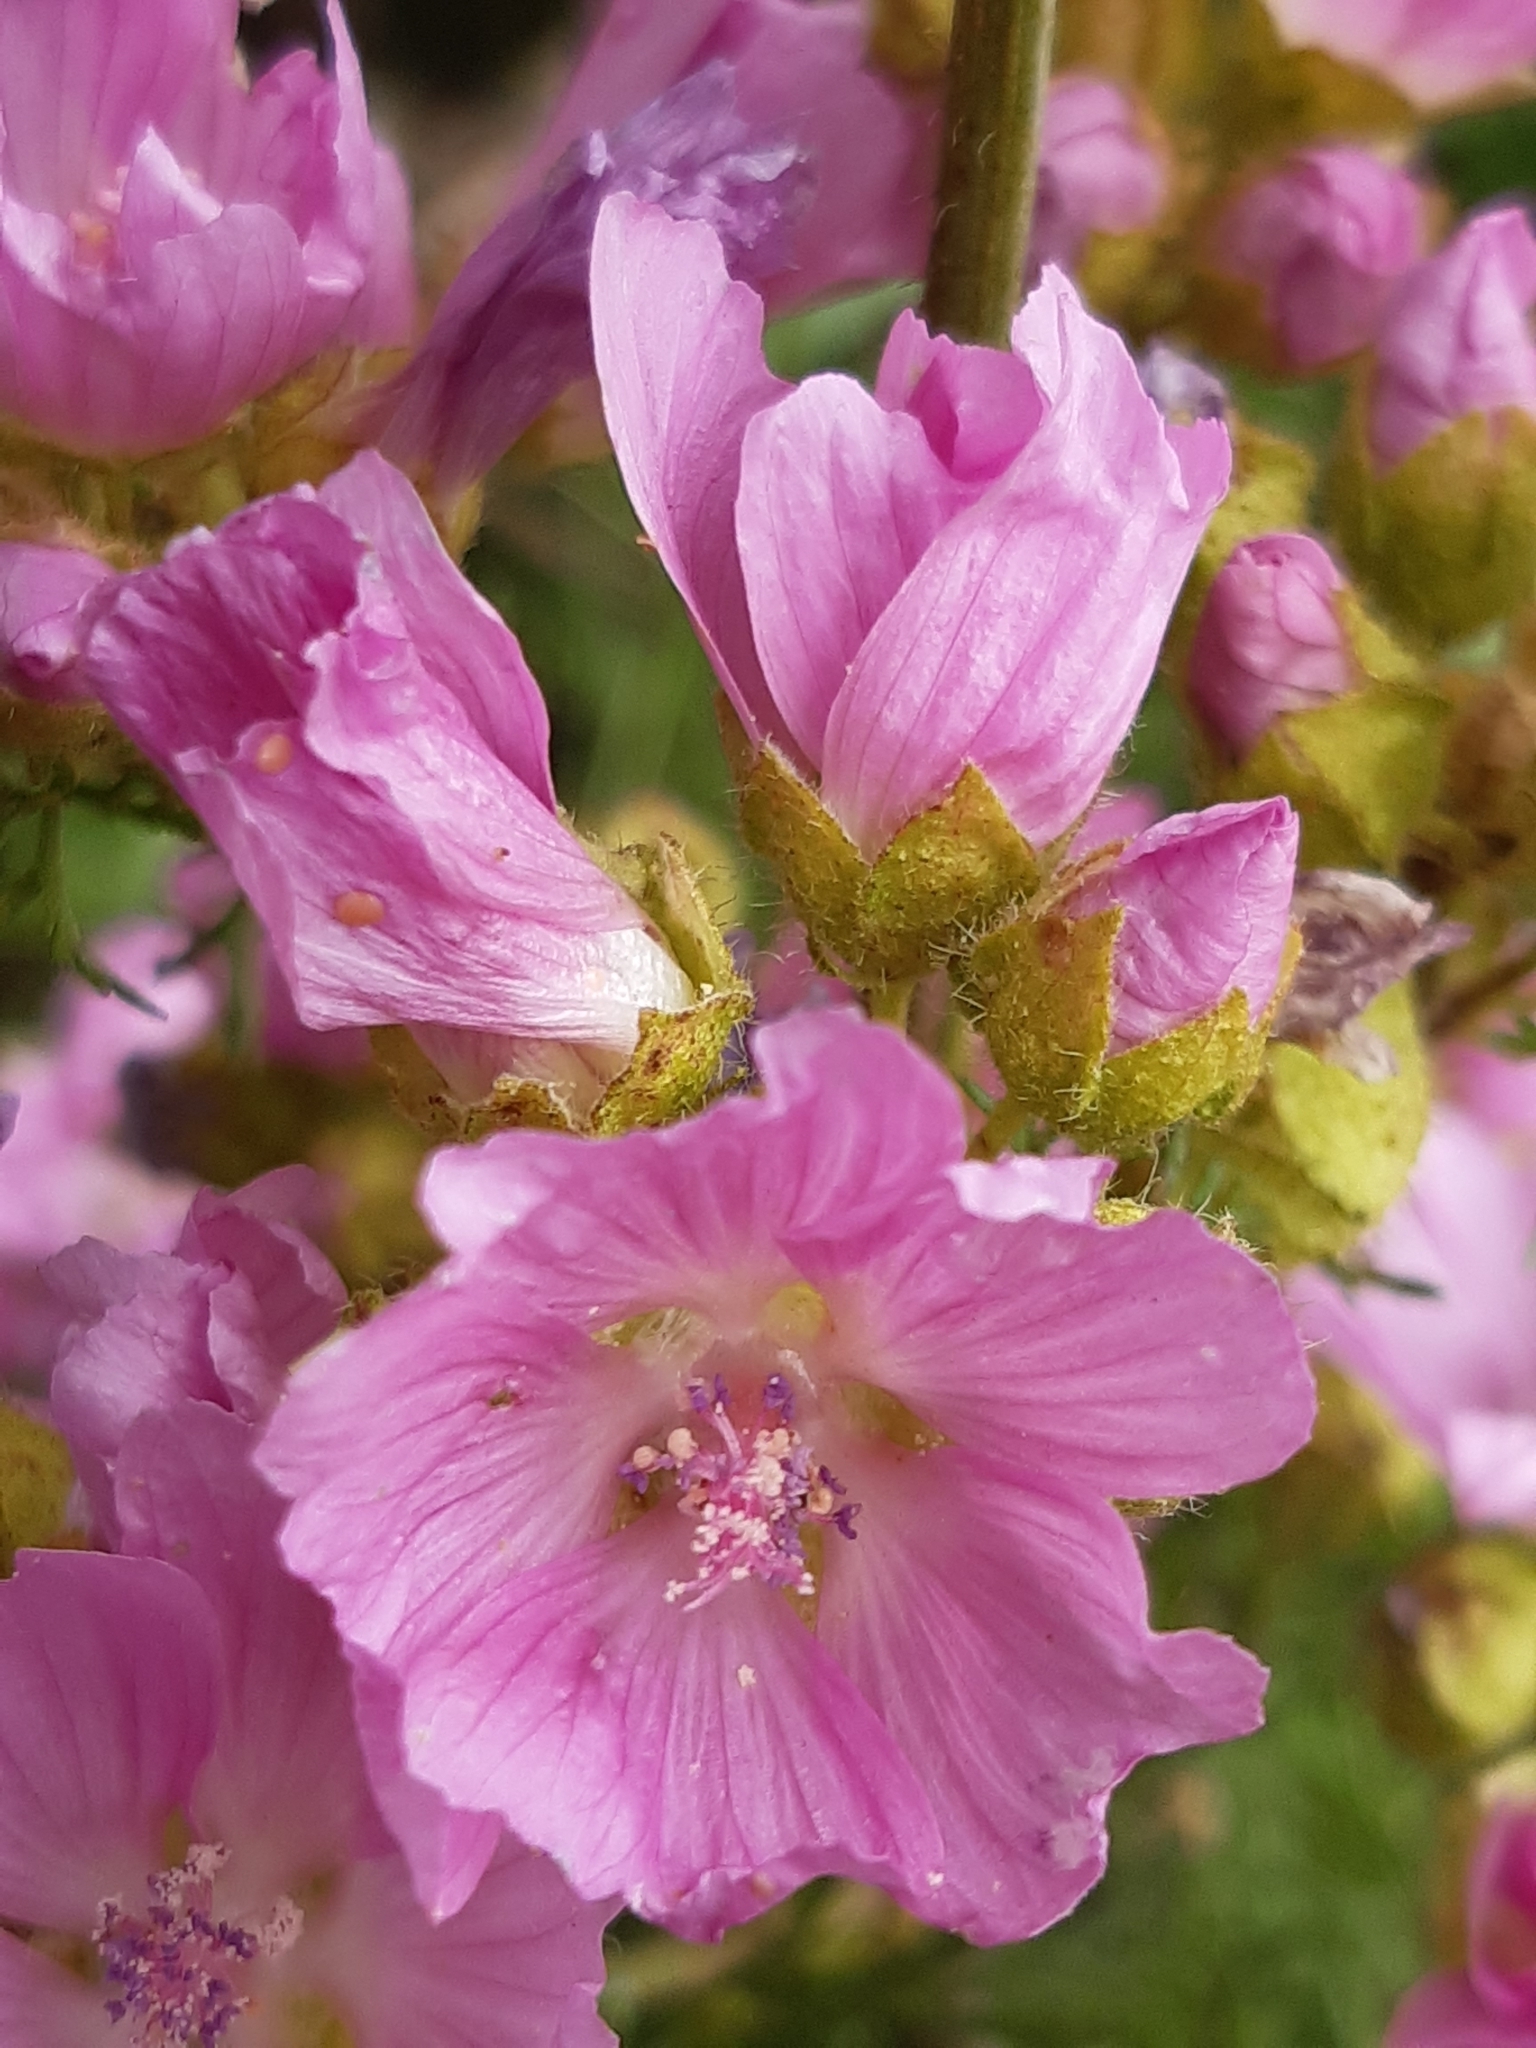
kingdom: Plantae
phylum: Tracheophyta
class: Magnoliopsida
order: Malvales
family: Malvaceae
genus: Malva
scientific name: Malva moschata
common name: Musk mallow
